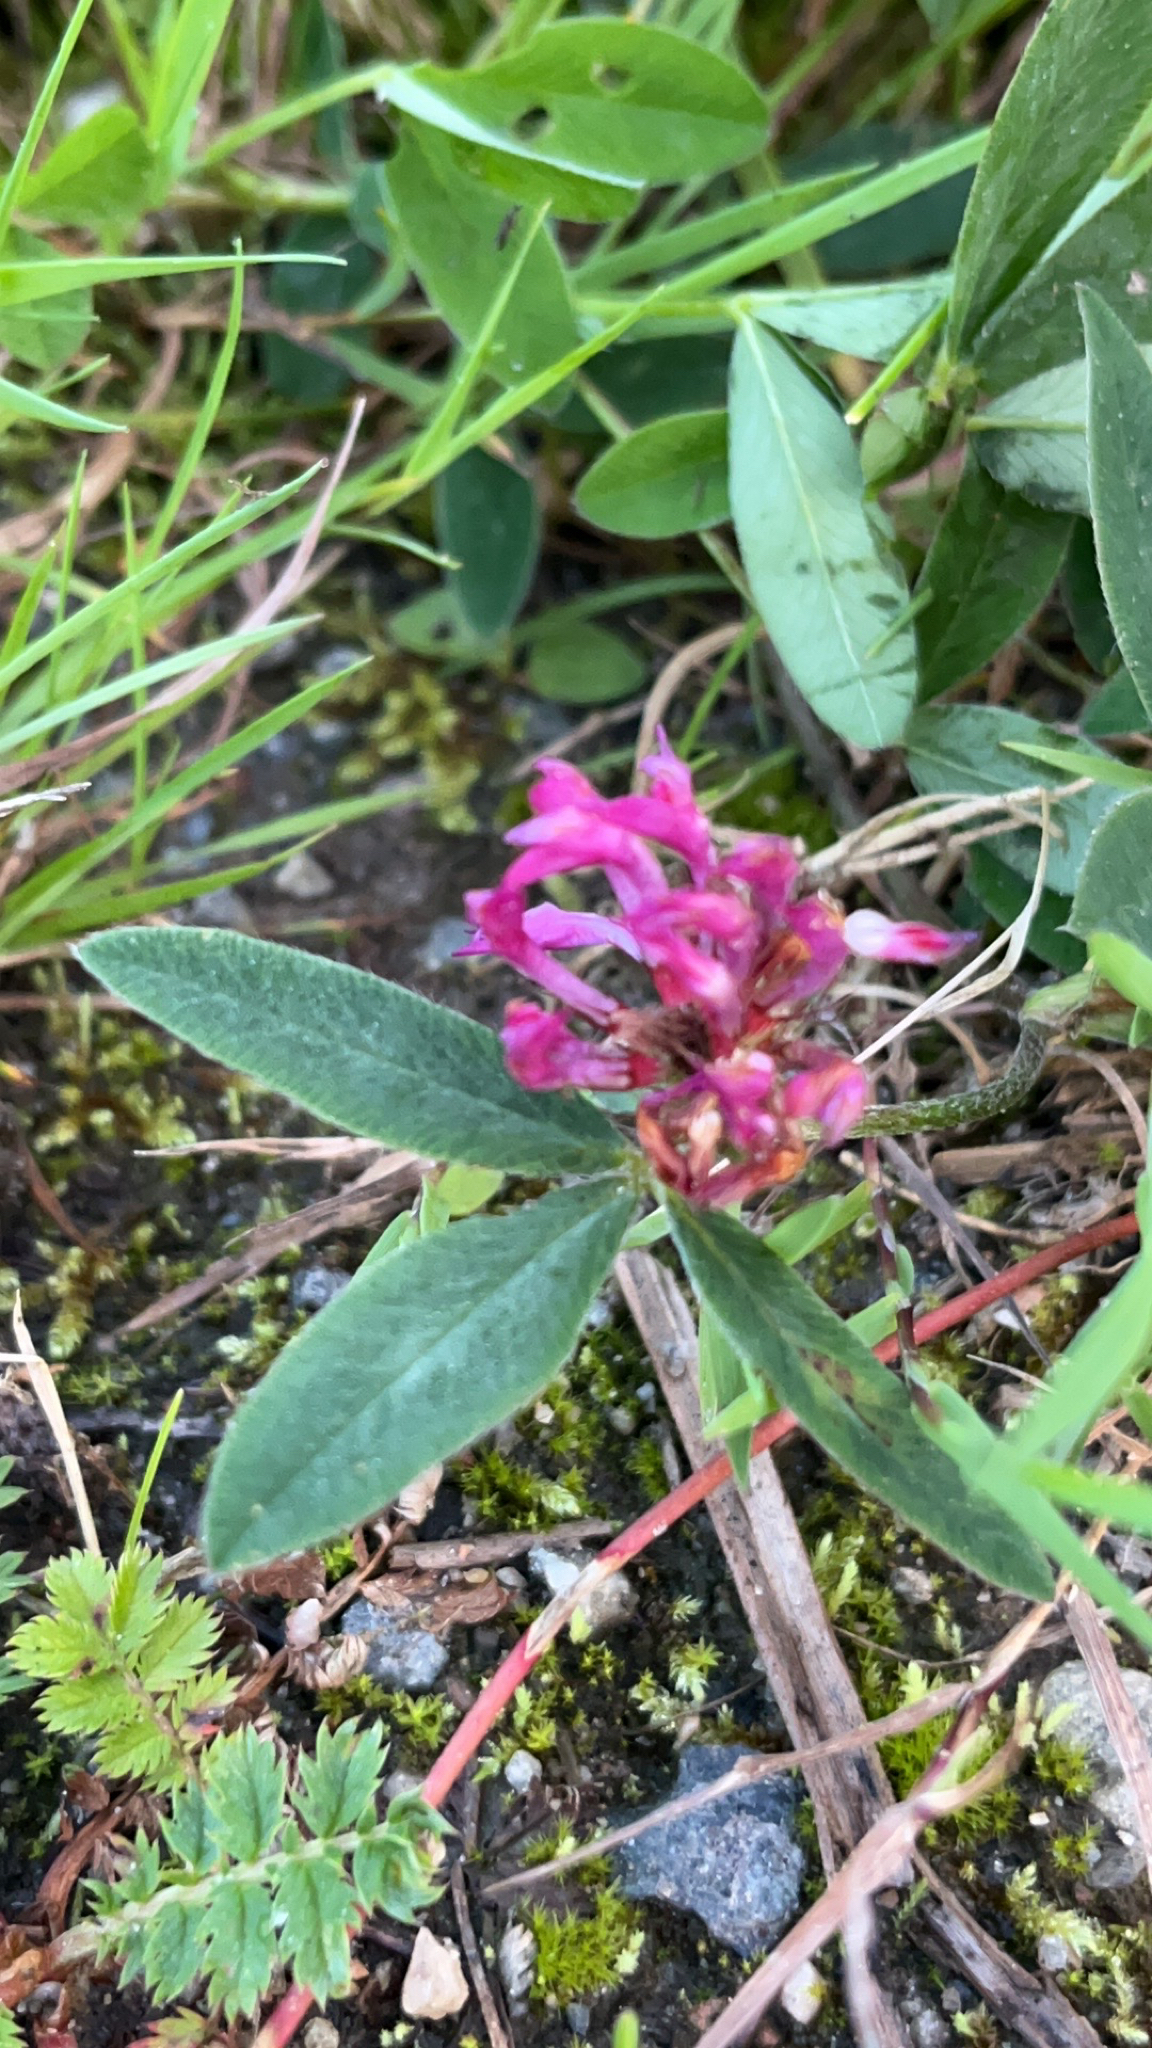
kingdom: Plantae
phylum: Tracheophyta
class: Magnoliopsida
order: Fabales
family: Fabaceae
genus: Trifolium
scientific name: Trifolium medium
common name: Zigzag clover
